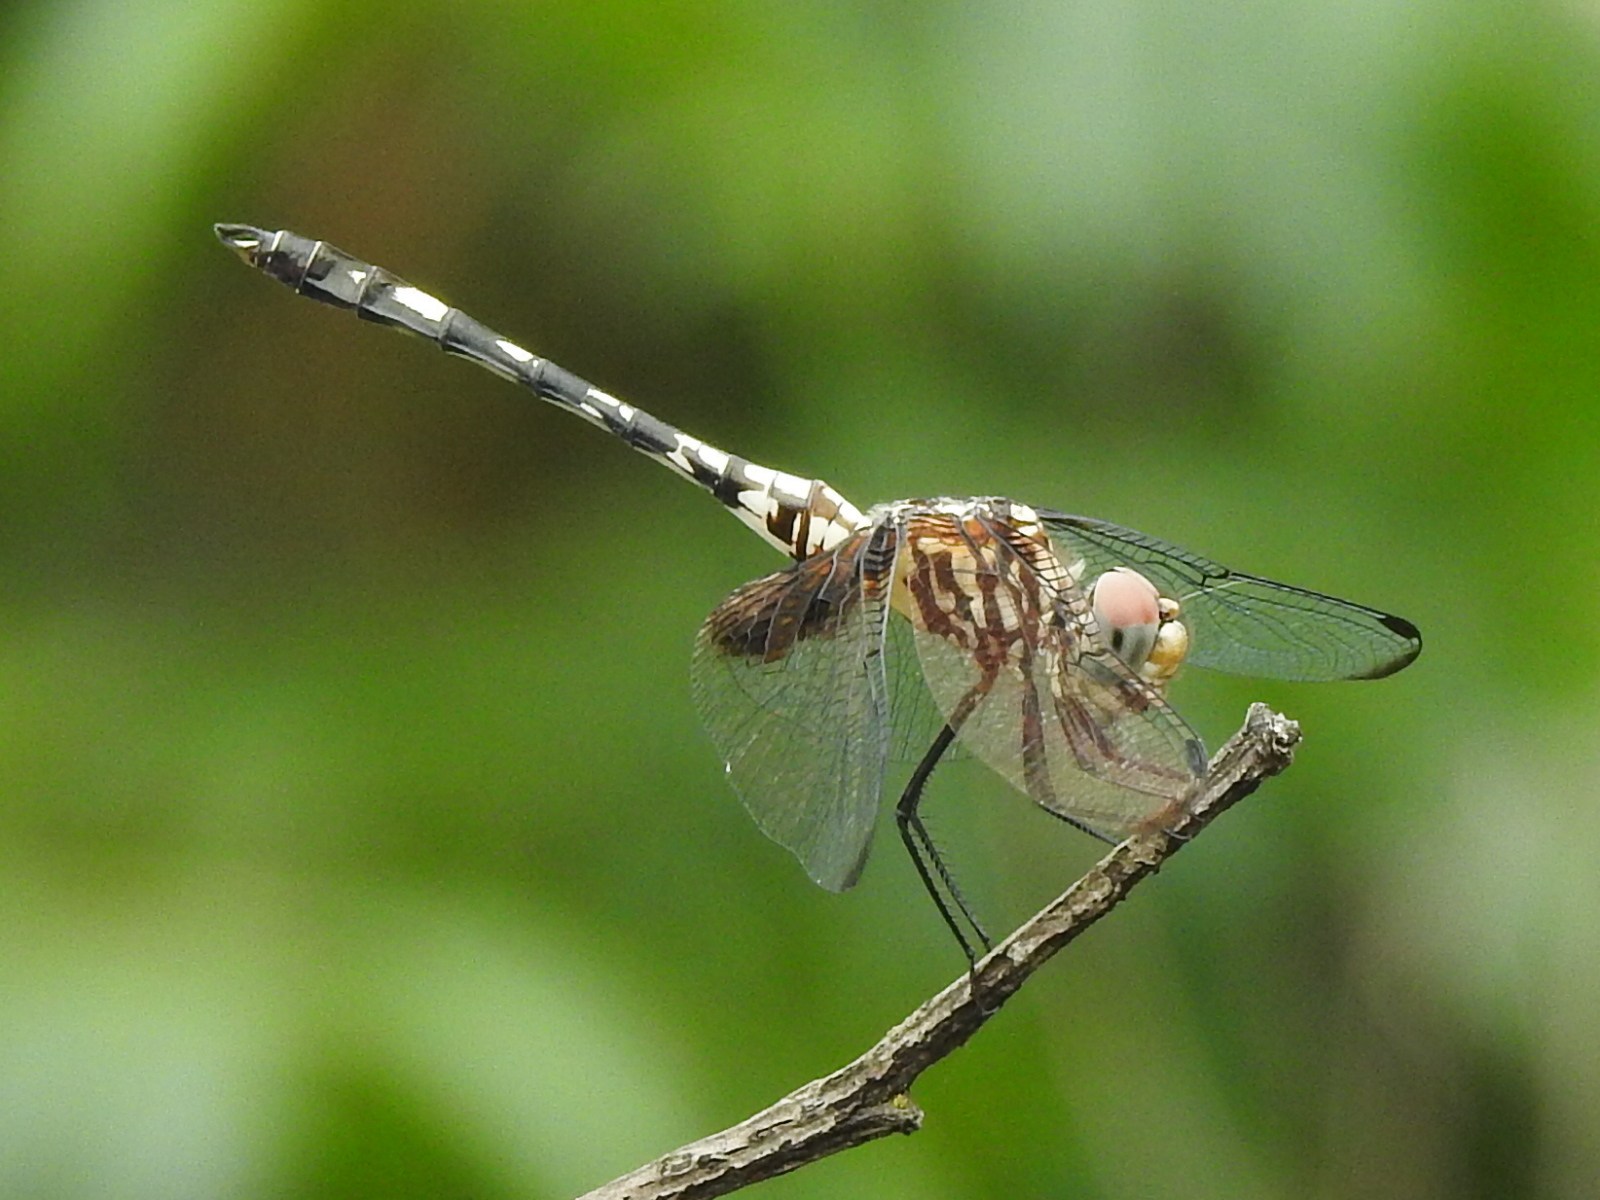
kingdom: Animalia
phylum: Arthropoda
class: Insecta
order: Odonata
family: Libellulidae
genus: Dythemis
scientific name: Dythemis fugax
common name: Checkered setwing
